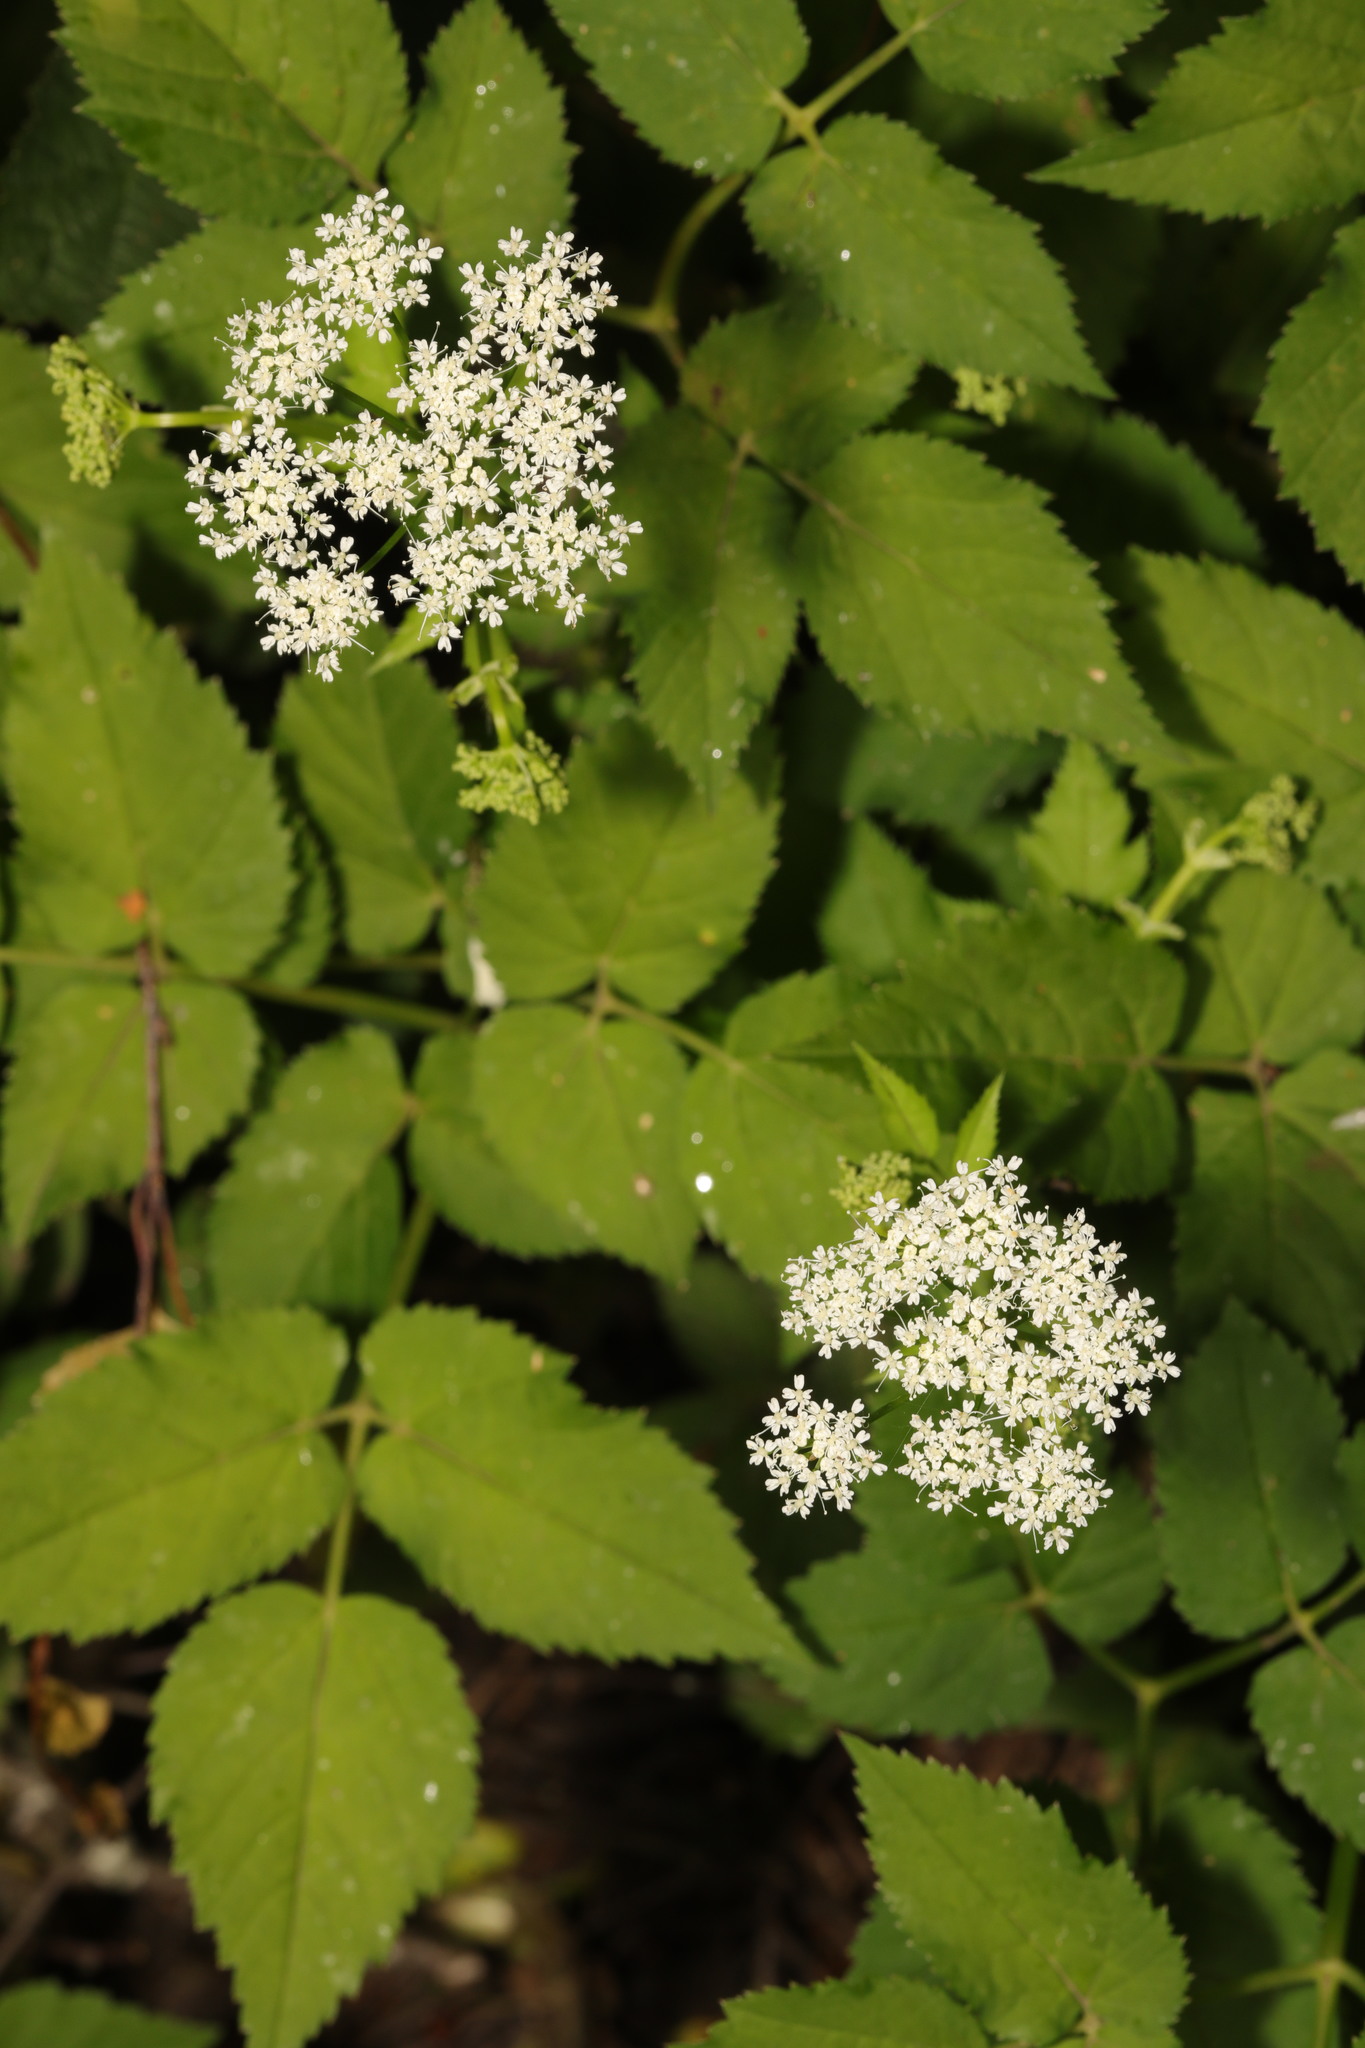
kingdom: Plantae
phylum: Tracheophyta
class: Magnoliopsida
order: Apiales
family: Apiaceae
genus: Aegopodium
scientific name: Aegopodium podagraria
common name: Ground-elder
